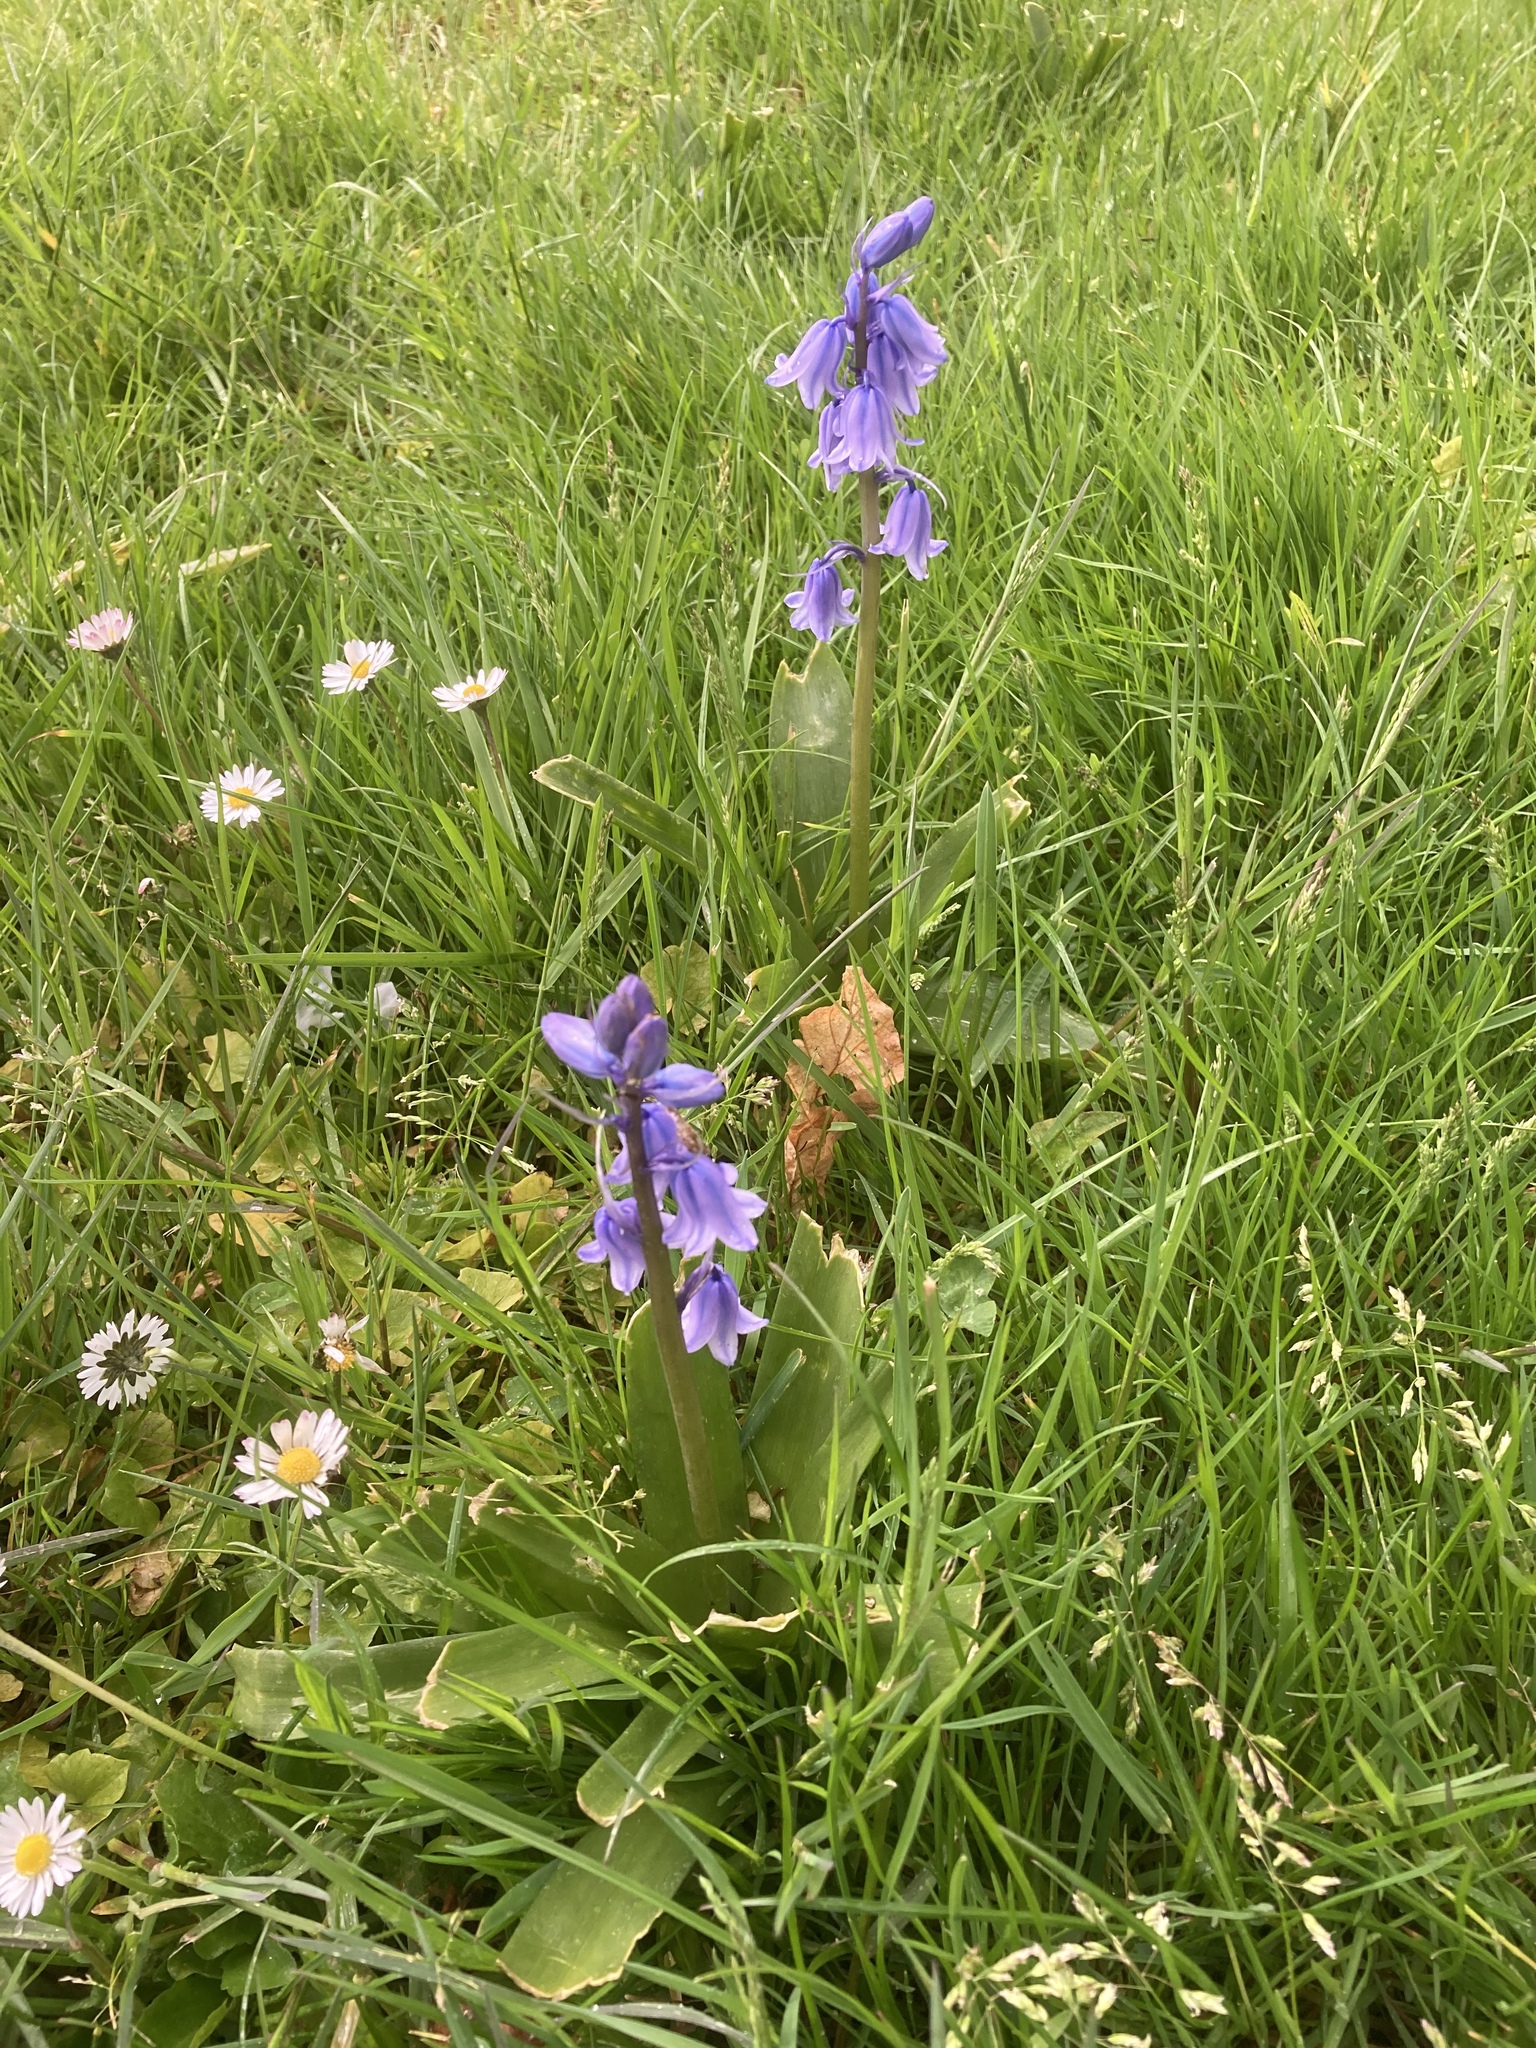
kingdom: Plantae
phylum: Tracheophyta
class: Liliopsida
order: Asparagales
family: Asparagaceae
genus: Hyacinthoides
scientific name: Hyacinthoides hispanica
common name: Spanish bluebell
